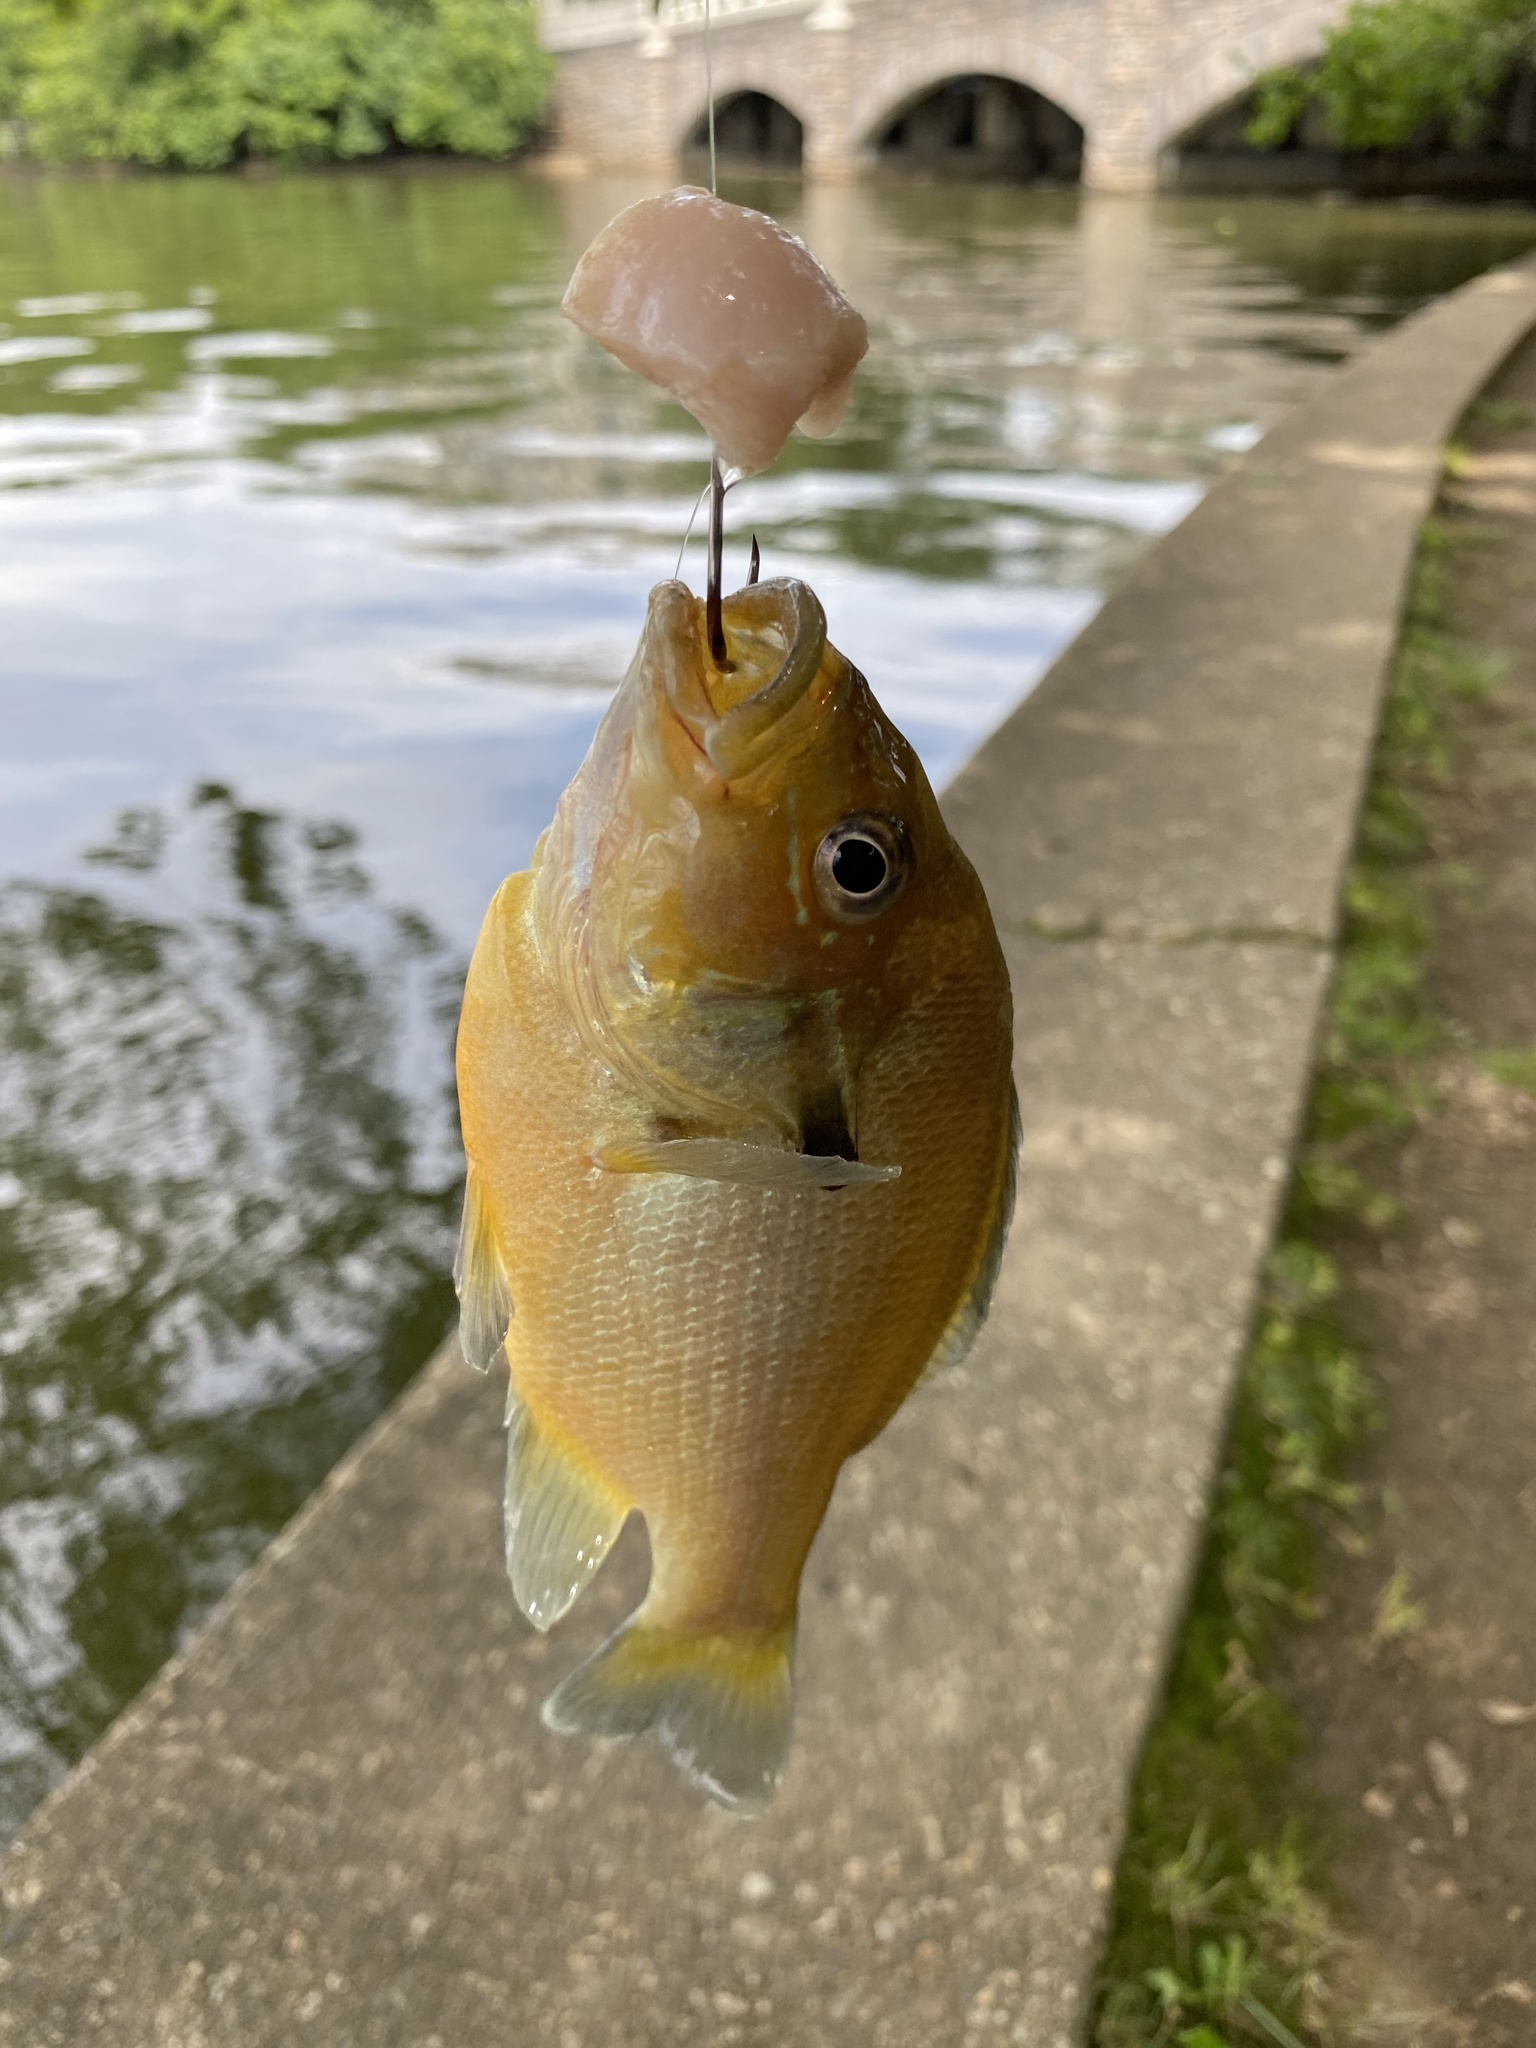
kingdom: Animalia
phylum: Chordata
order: Perciformes
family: Centrarchidae
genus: Lepomis
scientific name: Lepomis auritus
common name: Redbreast sunfish
